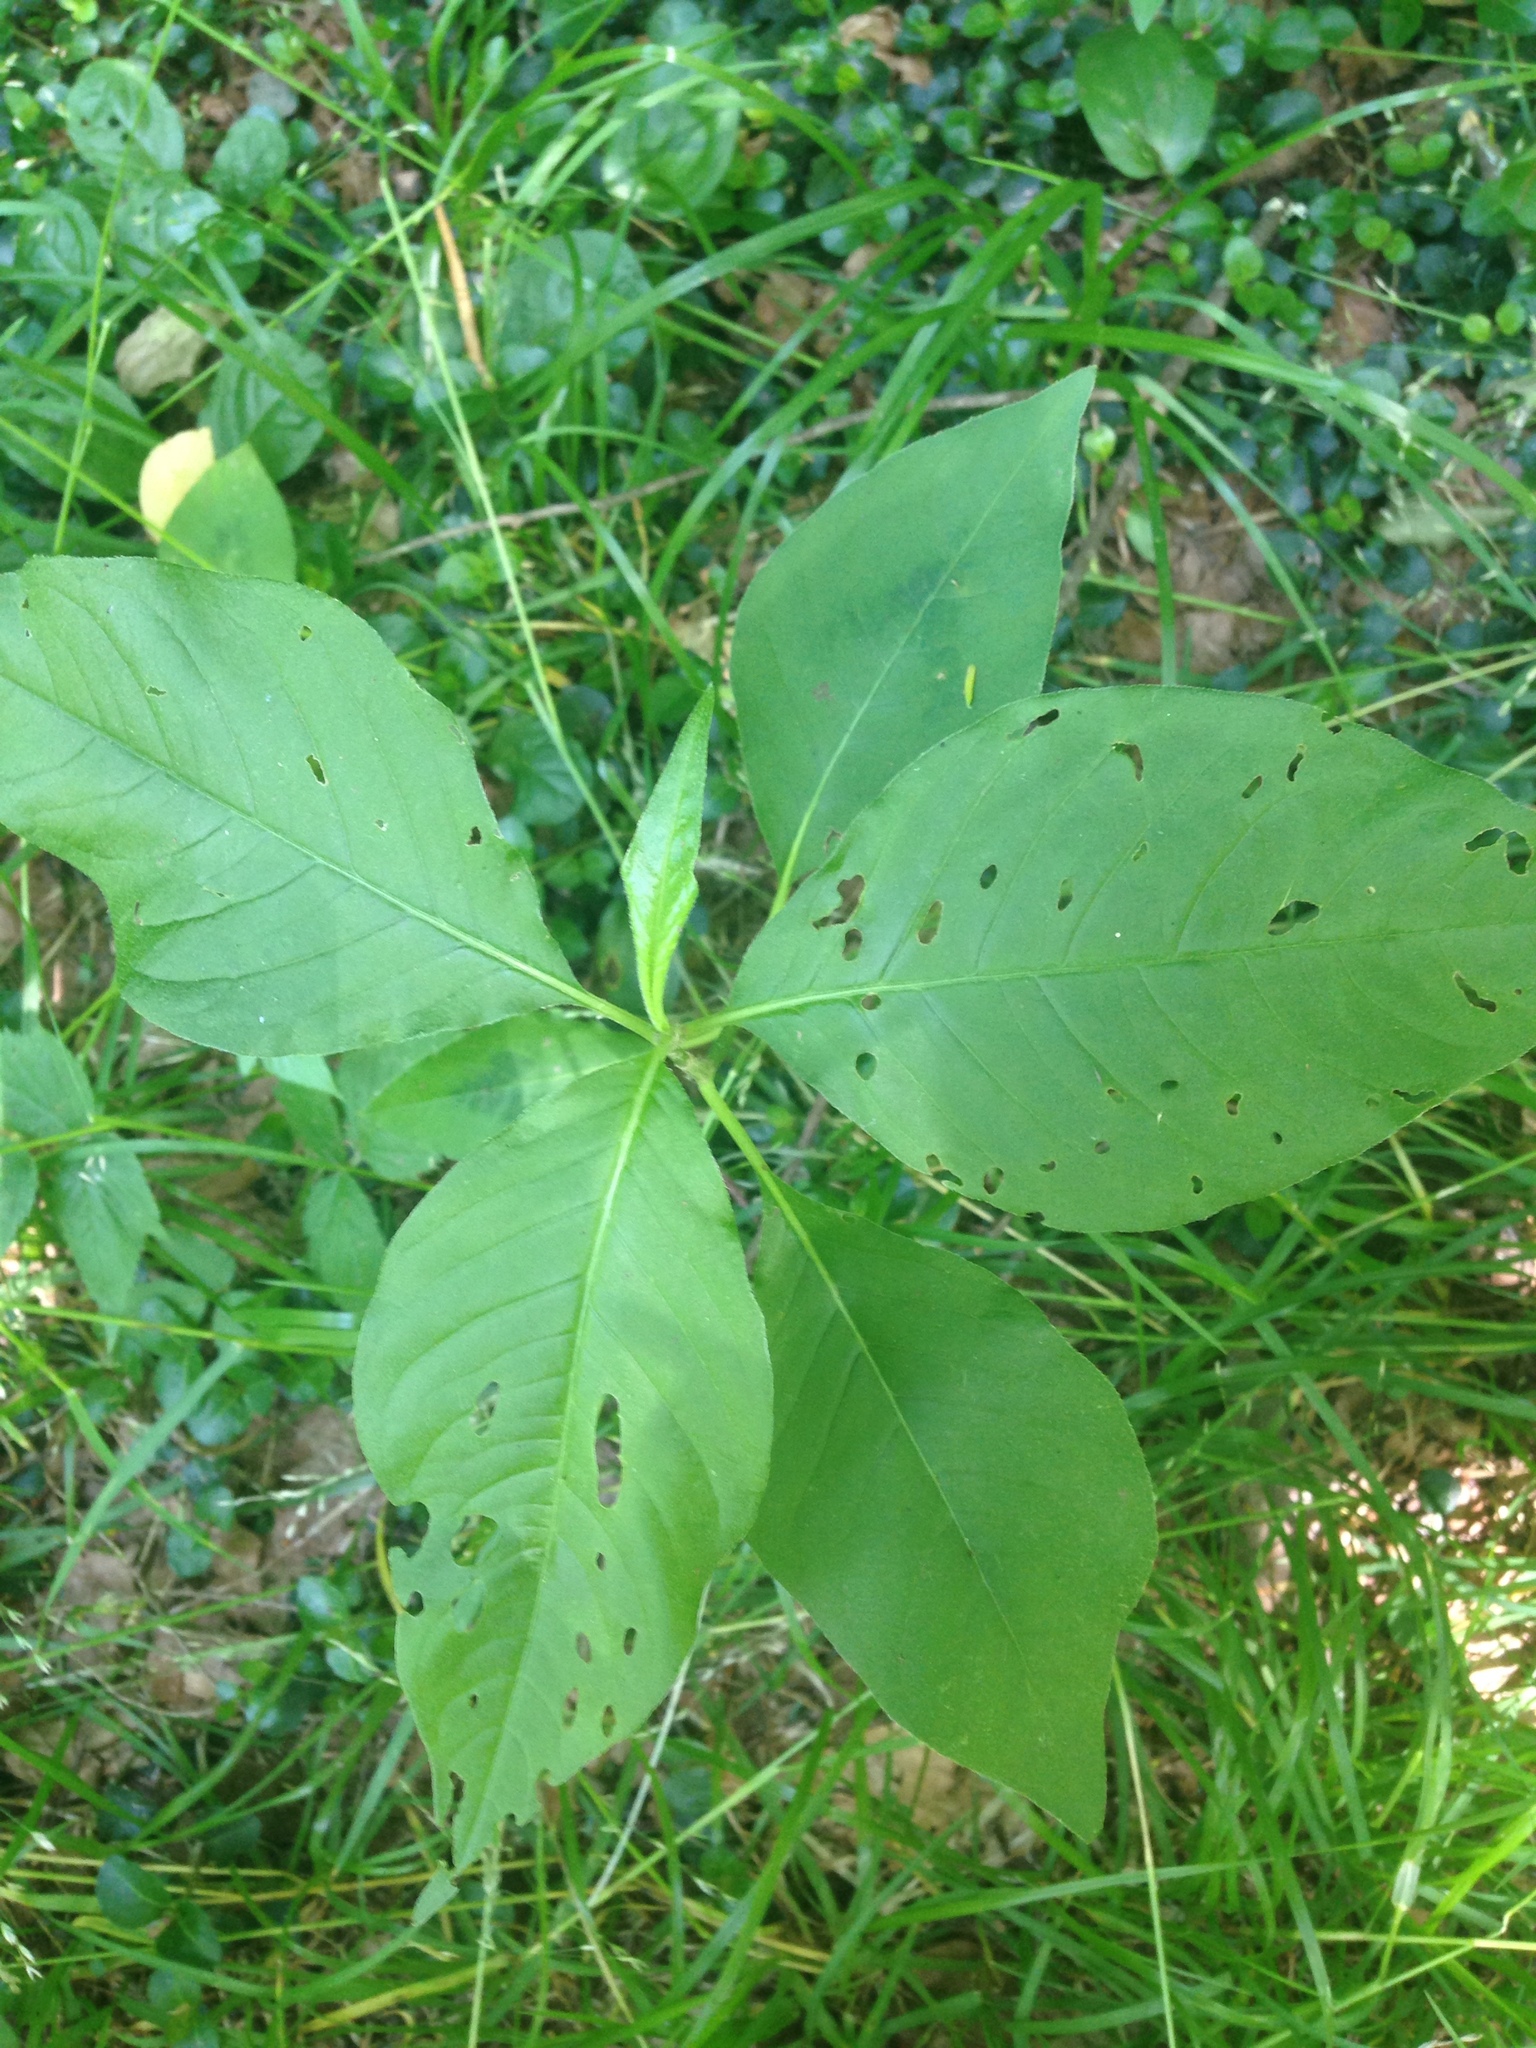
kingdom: Plantae
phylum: Tracheophyta
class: Magnoliopsida
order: Caryophyllales
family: Polygonaceae
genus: Persicaria
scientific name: Persicaria virginiana
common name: Jumpseed
